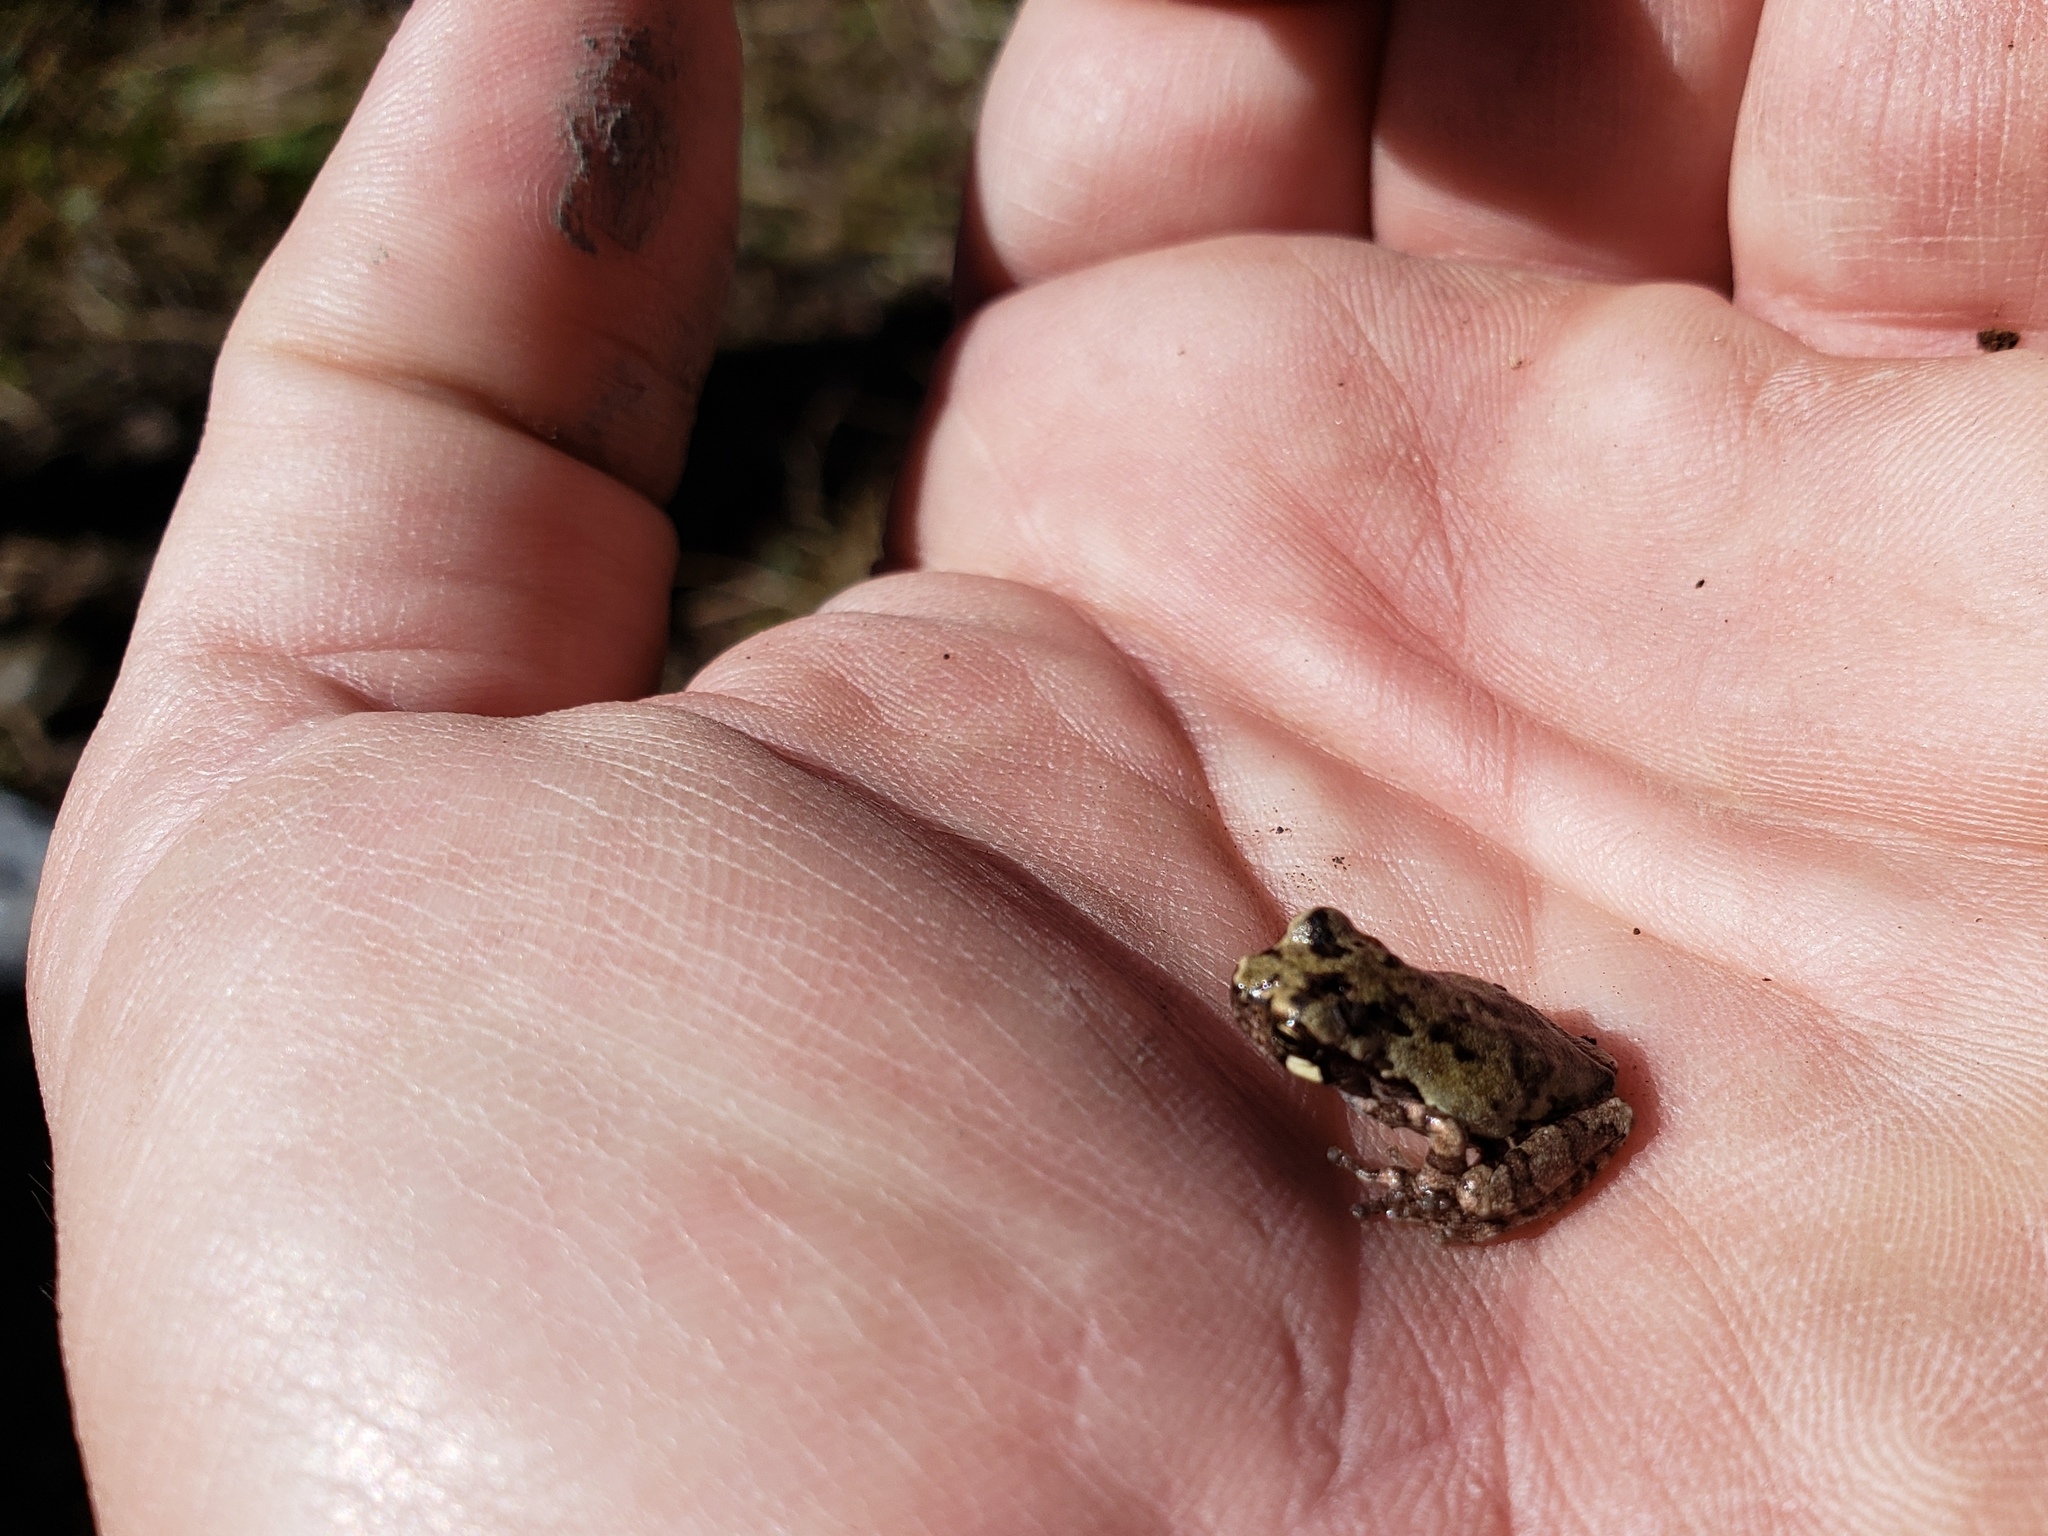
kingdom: Animalia
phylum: Chordata
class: Amphibia
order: Anura
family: Hylidae
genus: Dryophytes
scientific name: Dryophytes avivoca
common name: Bird-voiced treefrog
